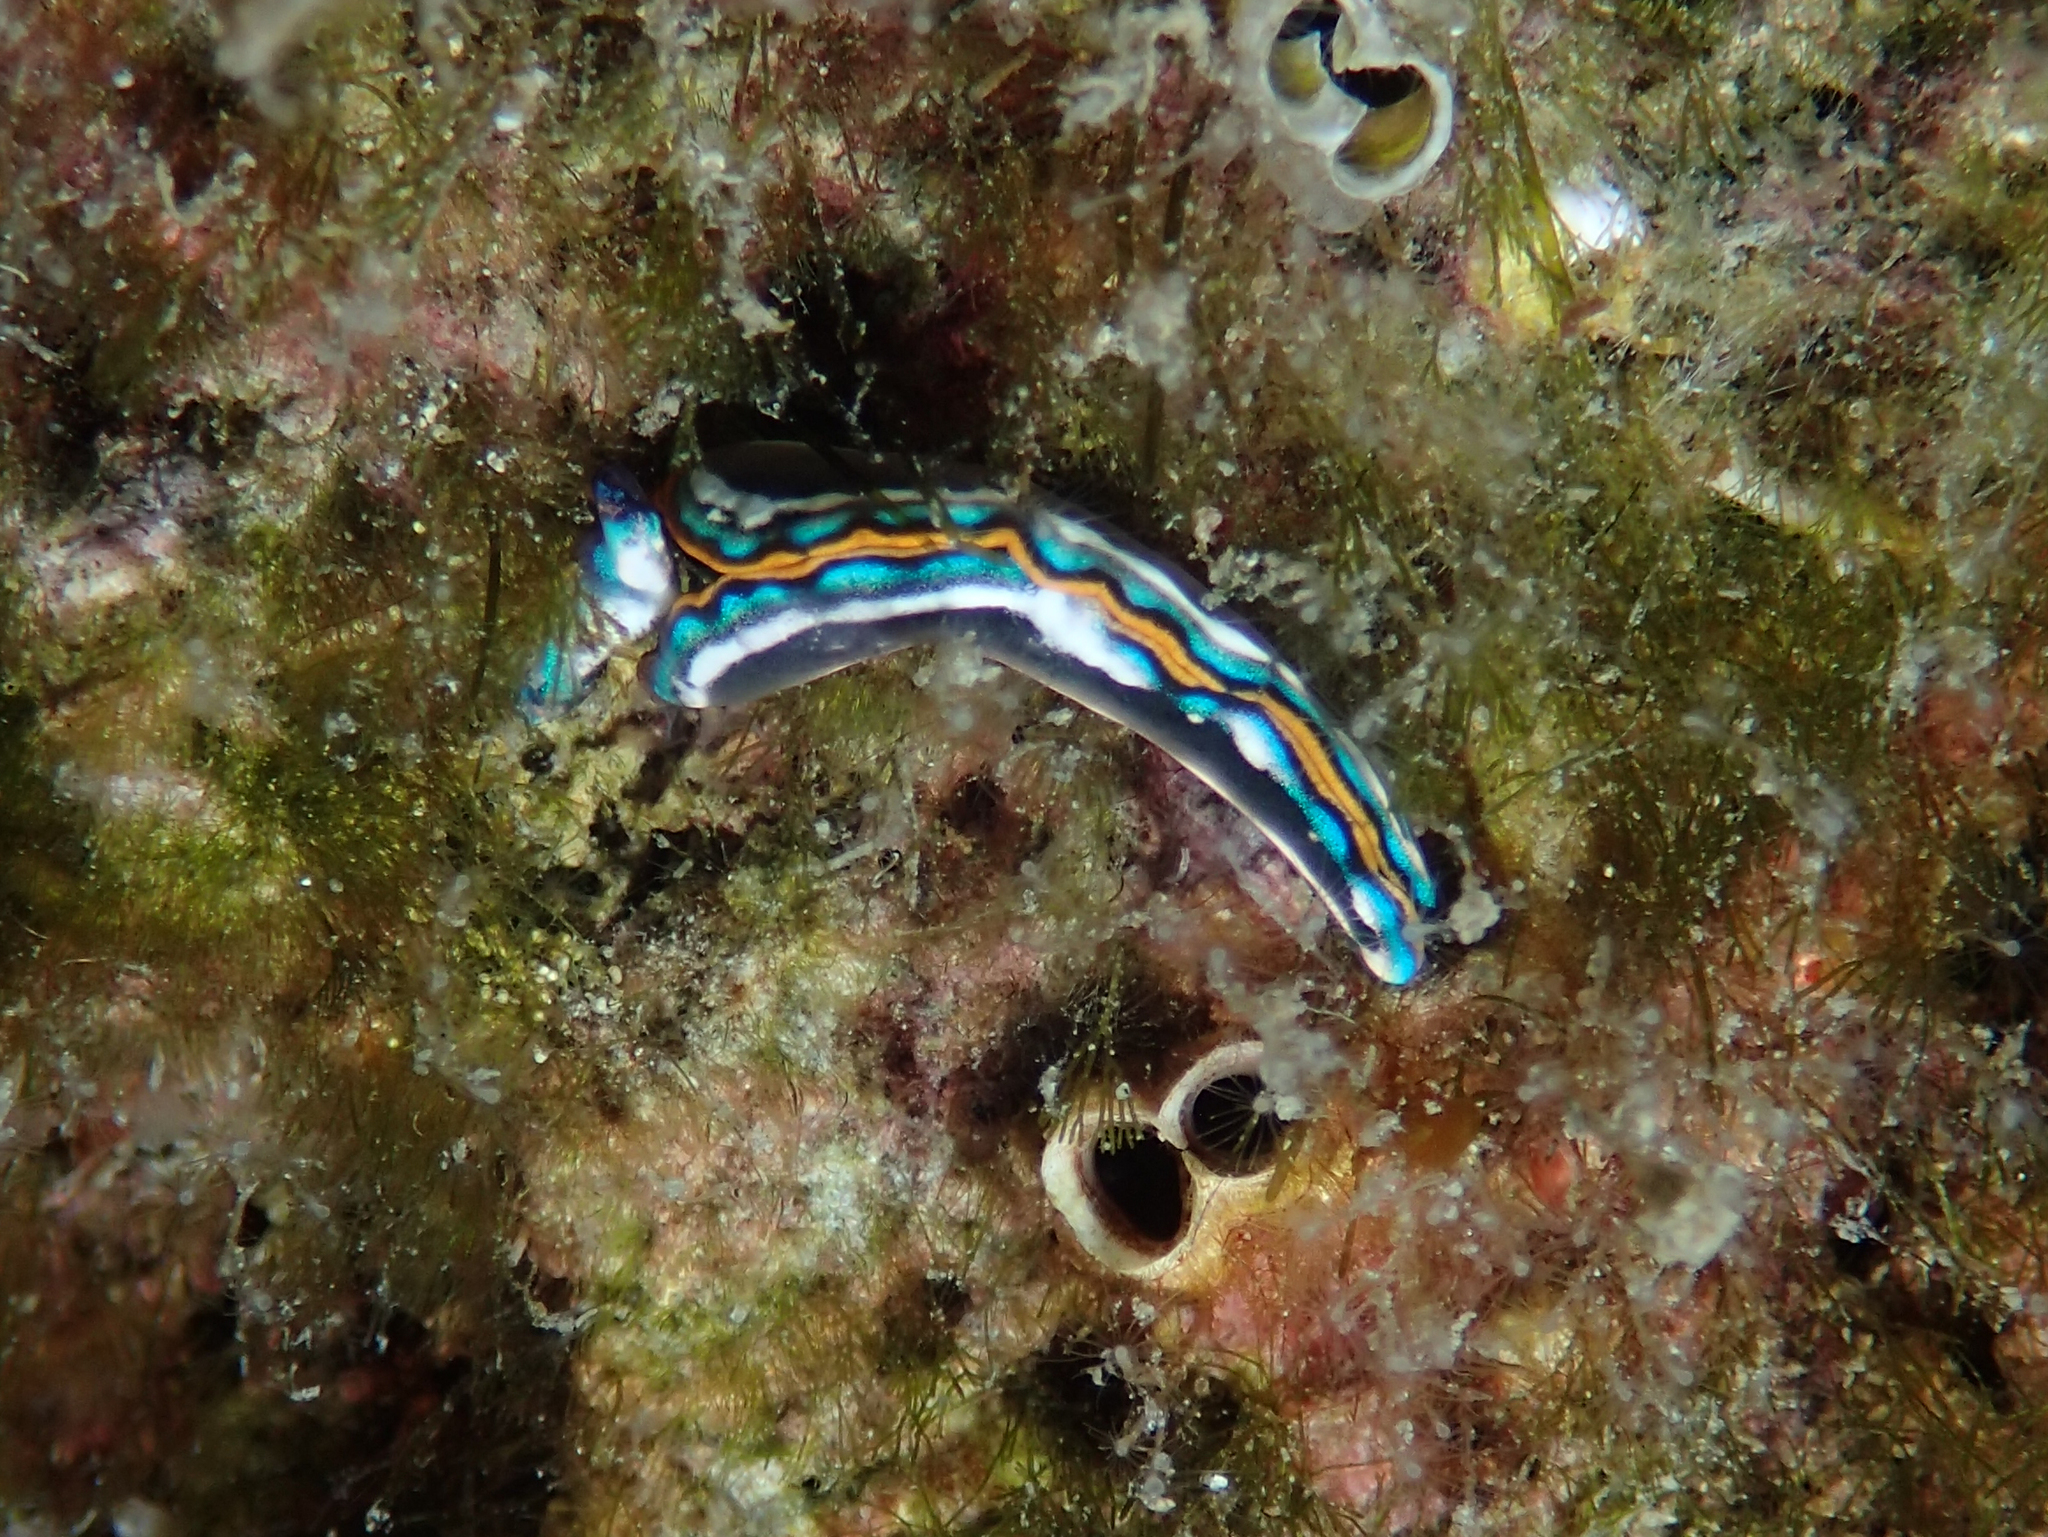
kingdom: Animalia
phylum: Mollusca
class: Gastropoda
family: Plakobranchidae
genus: Thuridilla
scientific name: Thuridilla hopei
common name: Splendid elysia
